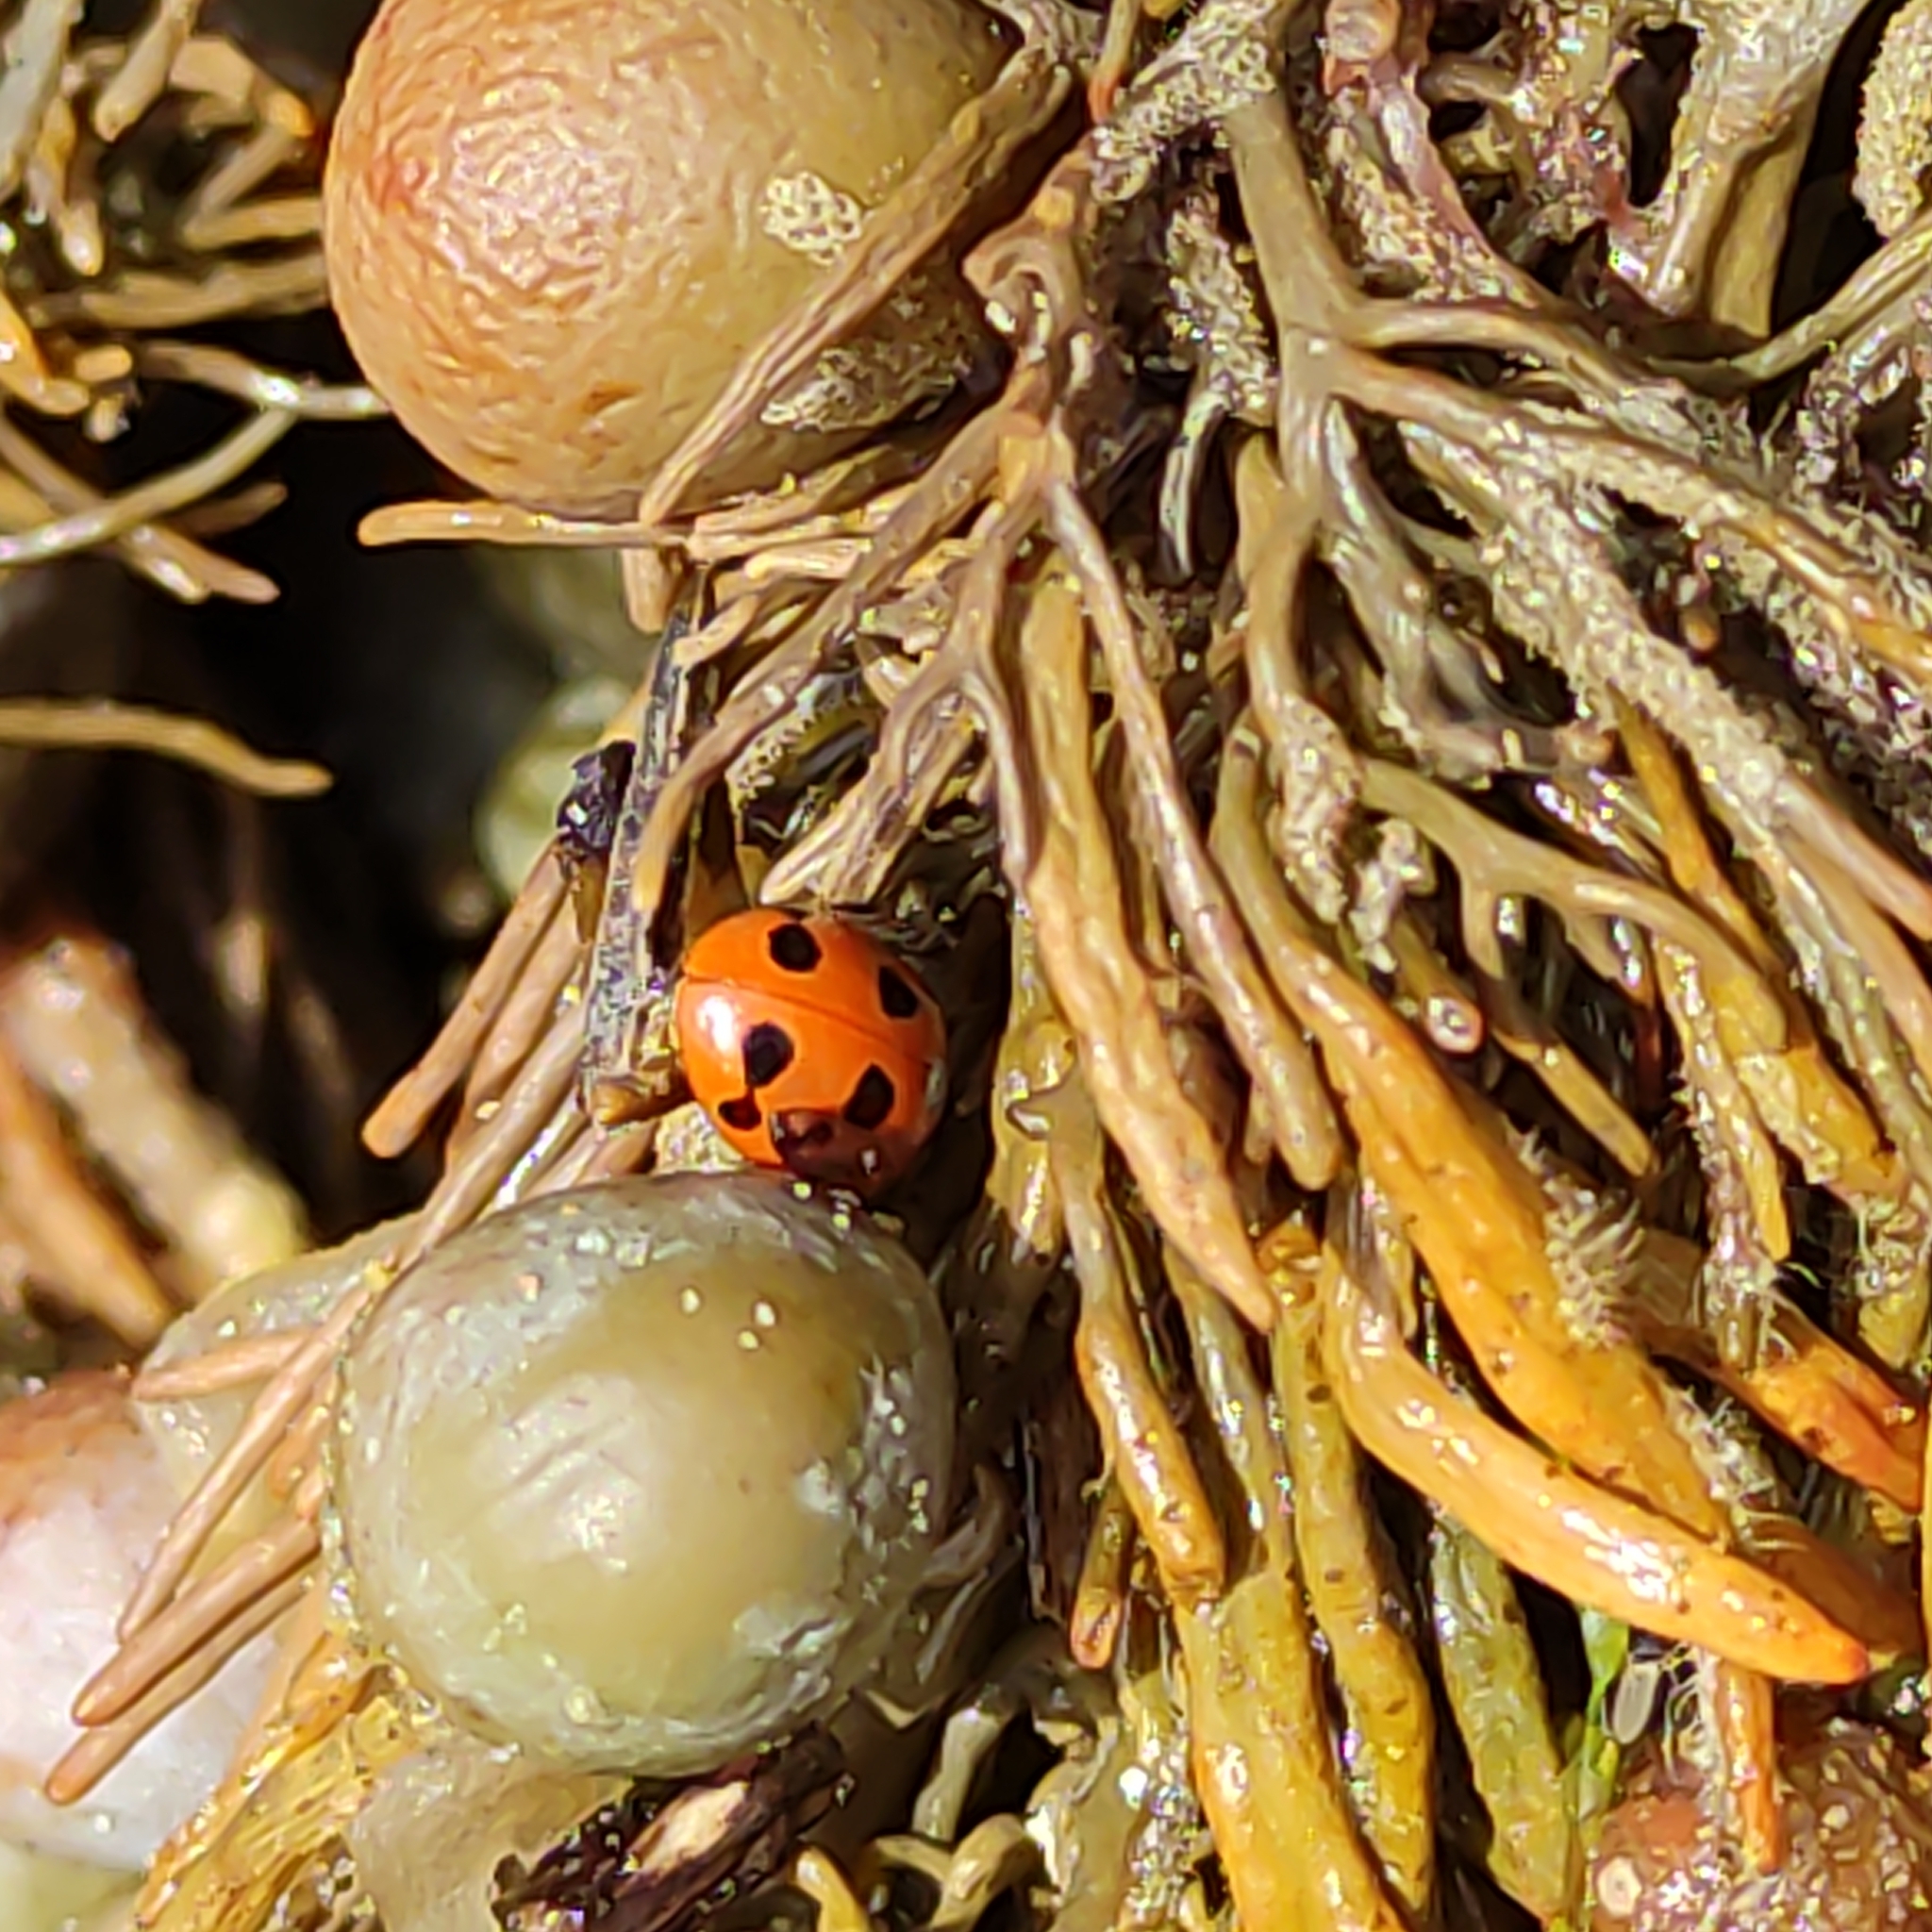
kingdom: Animalia
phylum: Arthropoda
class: Insecta
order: Coleoptera
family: Coccinellidae
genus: Coccinella
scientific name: Coccinella undecimpunctata
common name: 11-spot ladybird
